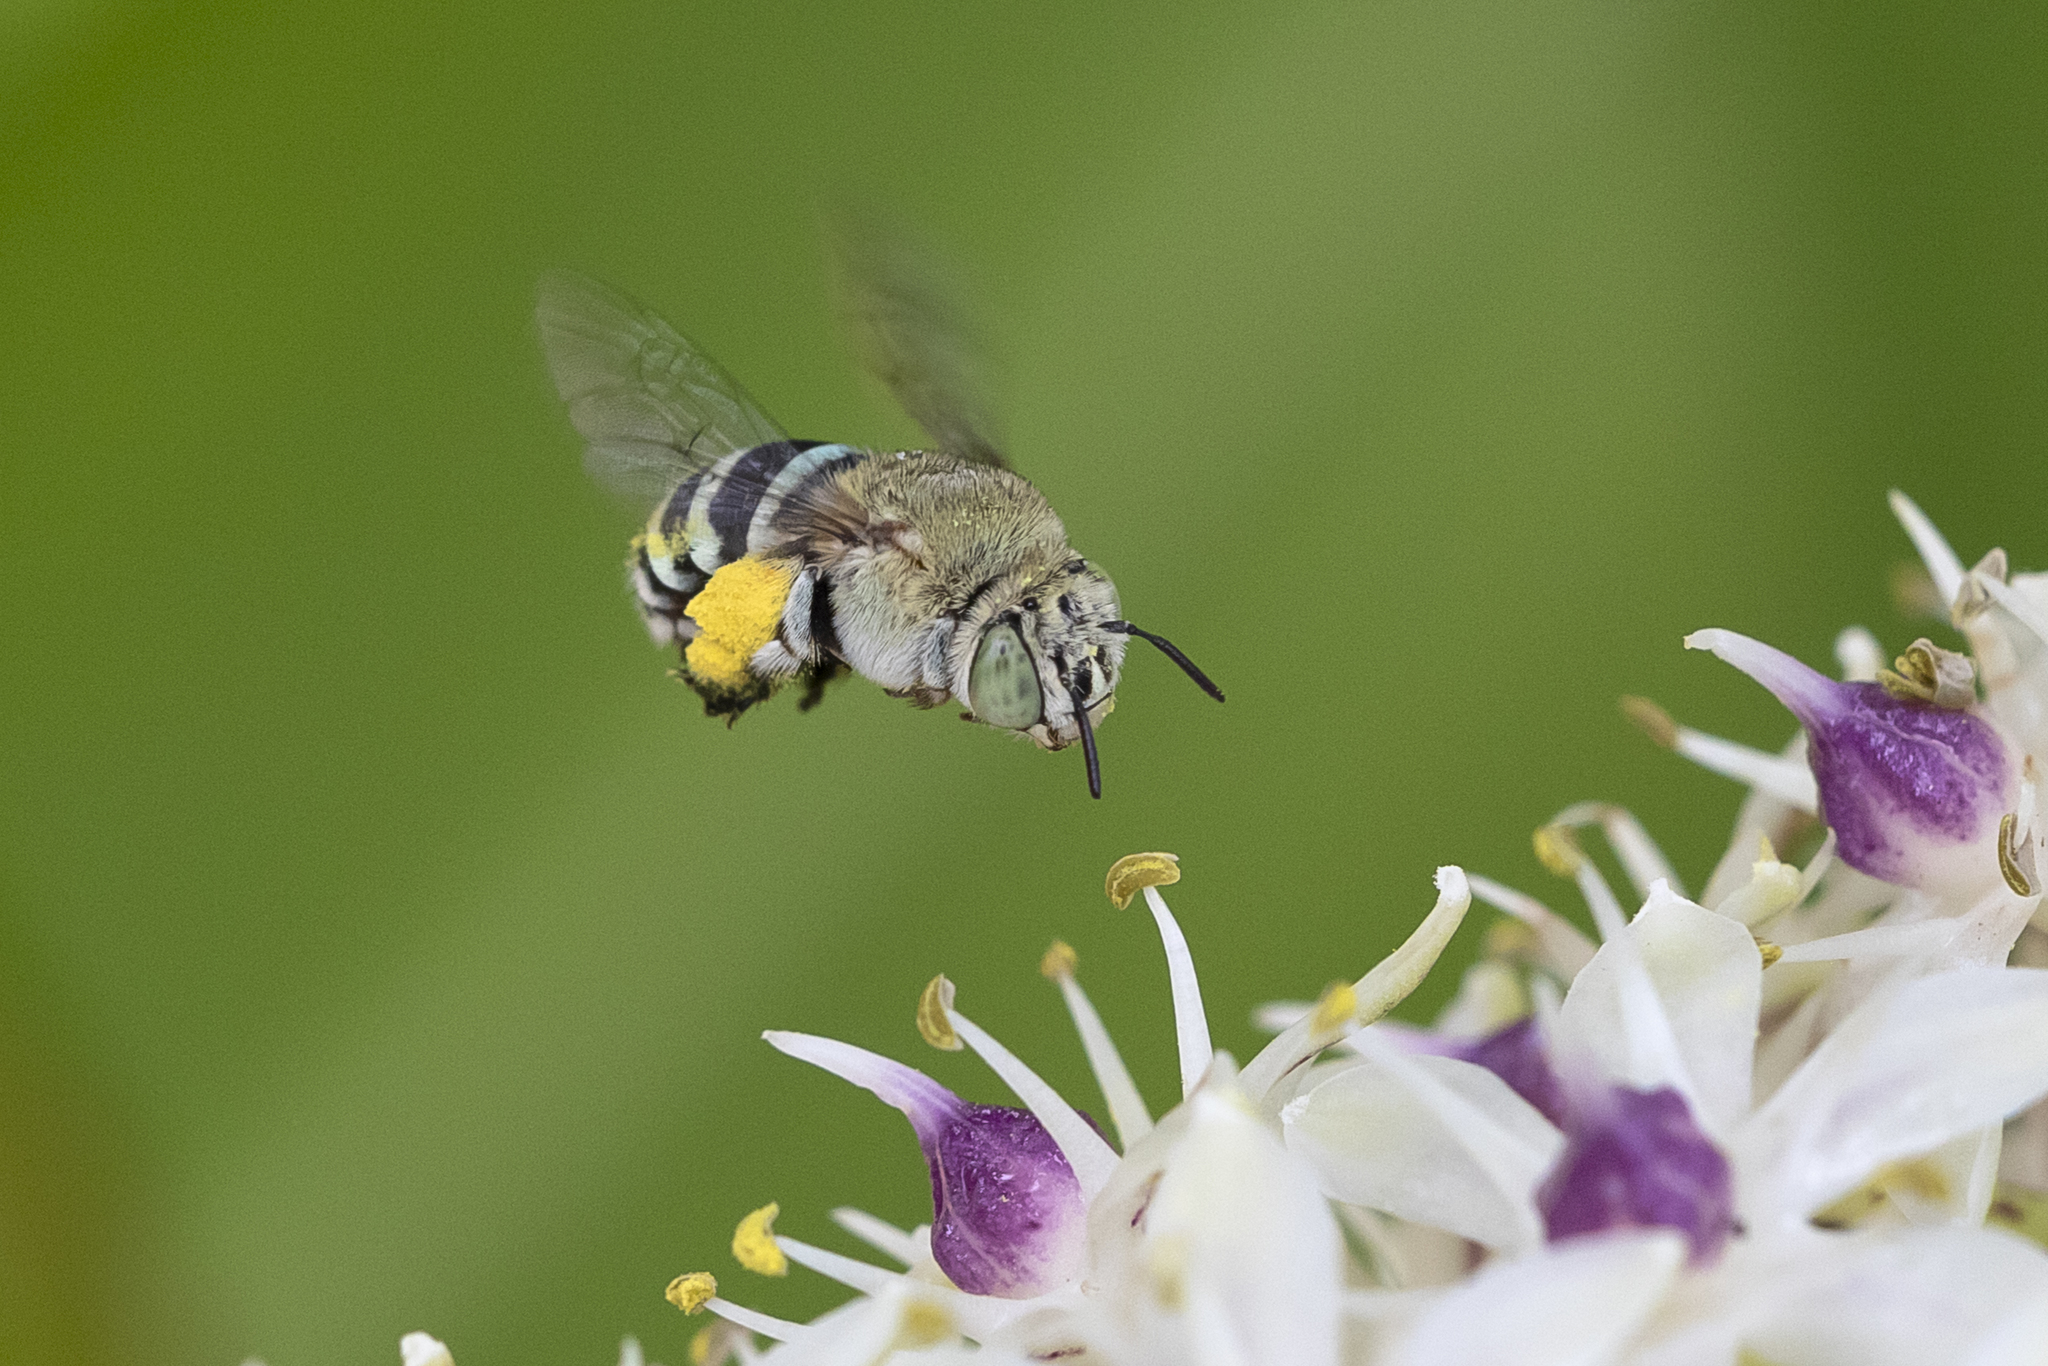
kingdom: Animalia
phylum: Arthropoda
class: Insecta
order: Hymenoptera
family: Apidae
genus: Amegilla
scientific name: Amegilla chlorocyanea
